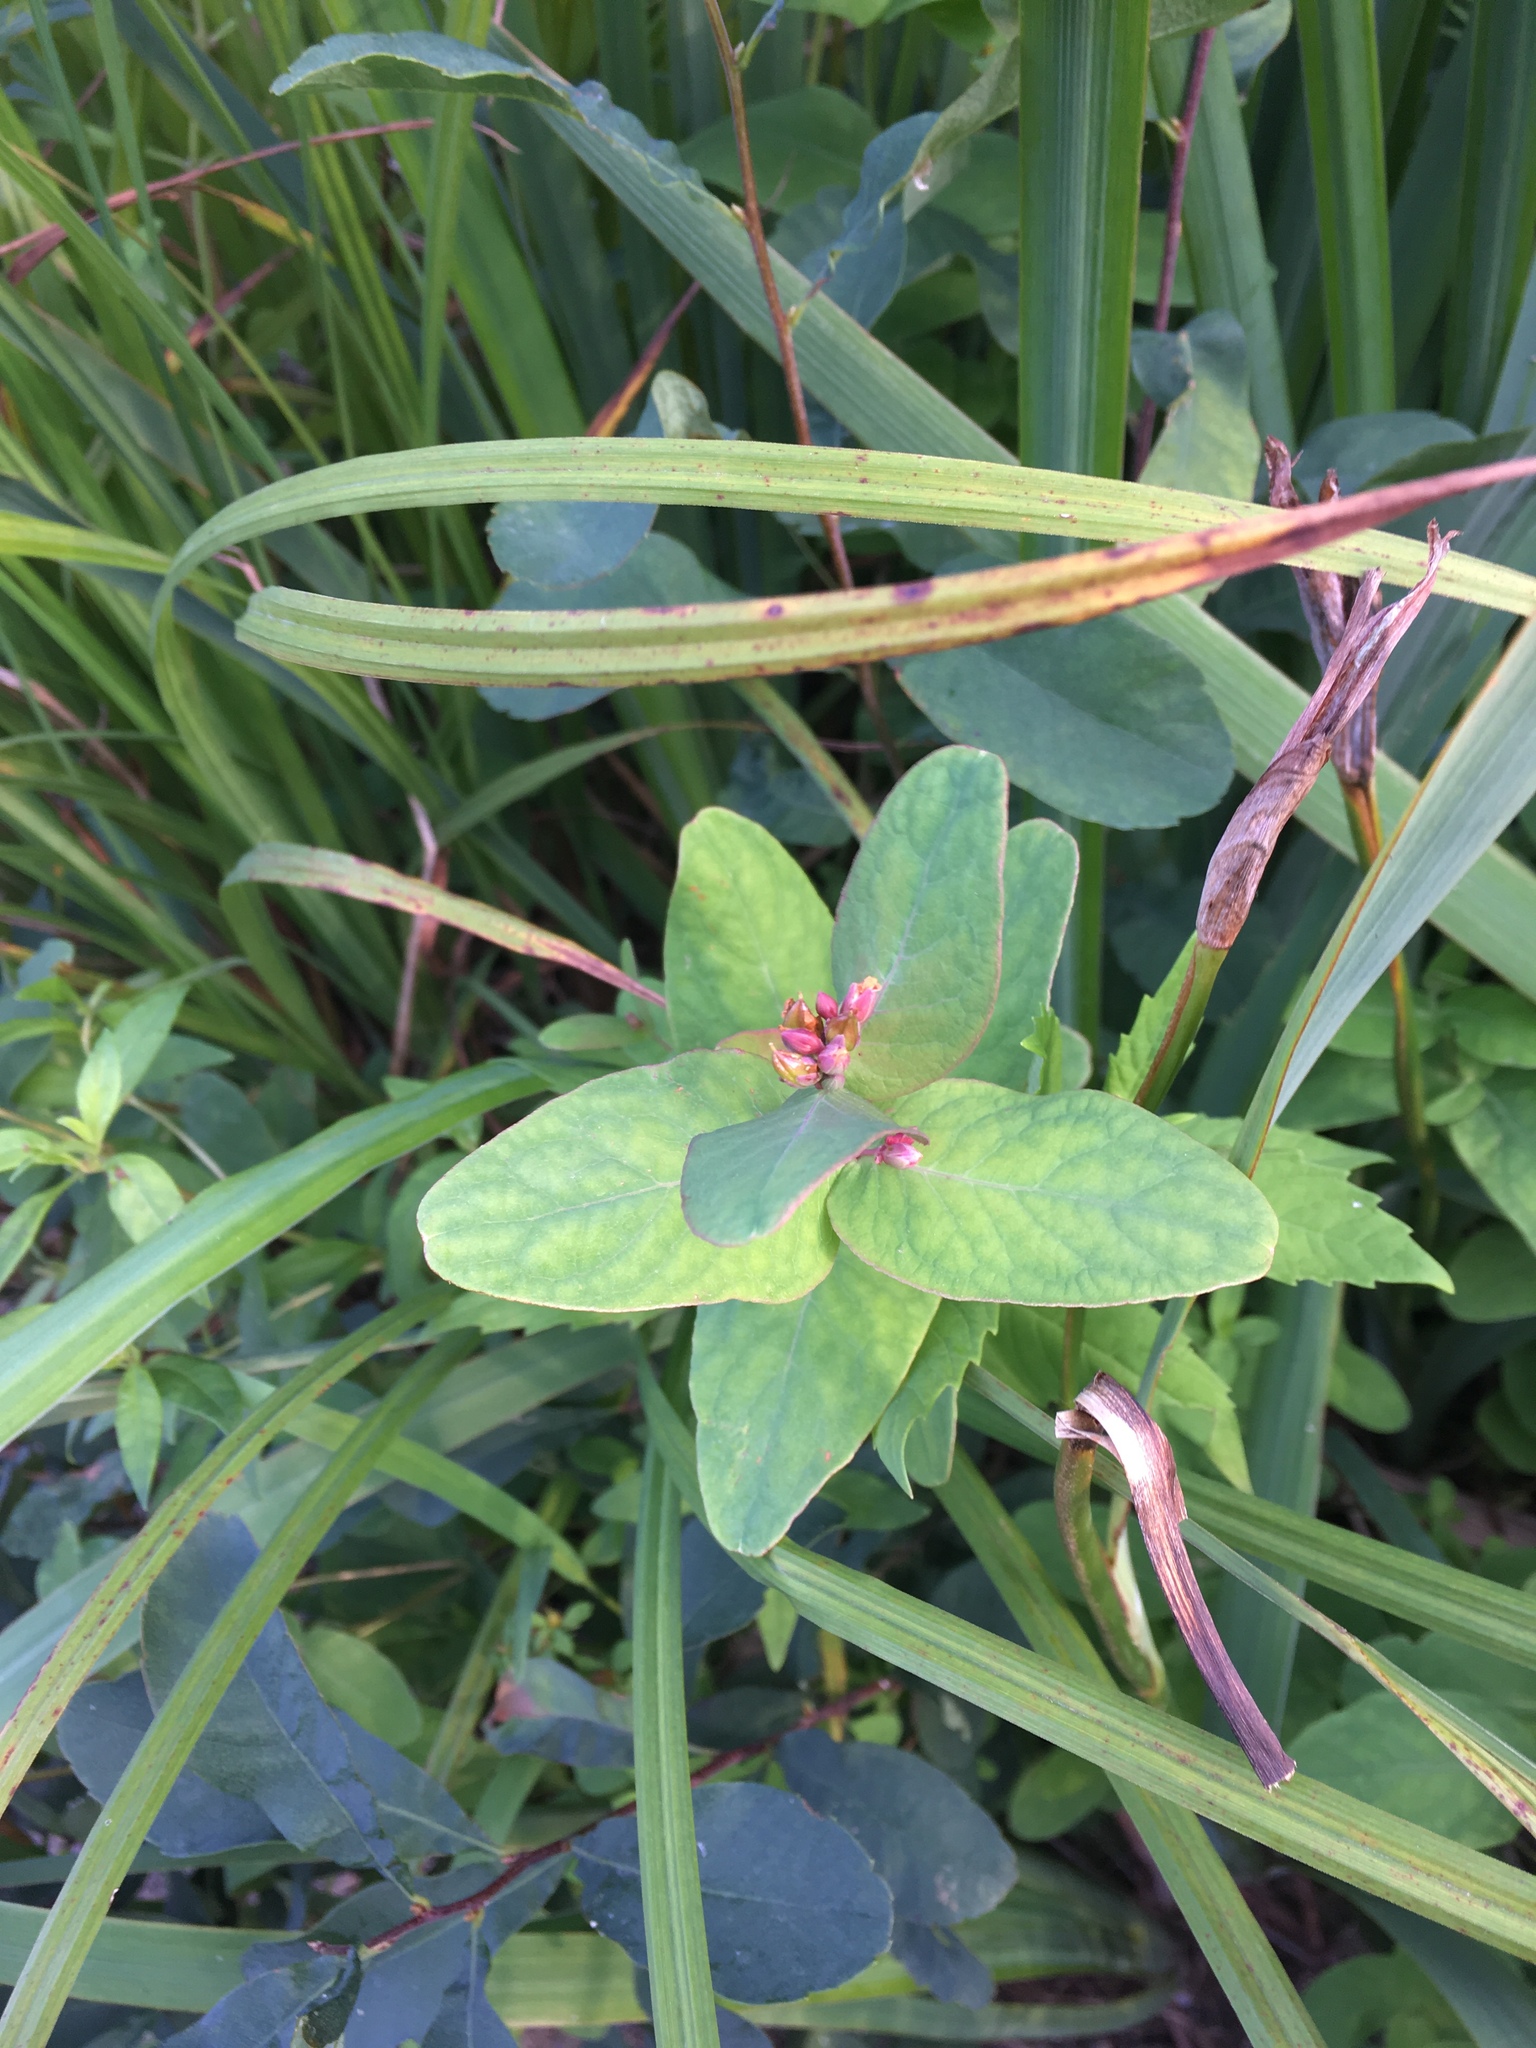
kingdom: Plantae
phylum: Tracheophyta
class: Magnoliopsida
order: Malpighiales
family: Hypericaceae
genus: Triadenum
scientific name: Triadenum fraseri
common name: Fraser's marsh st. johnswort
